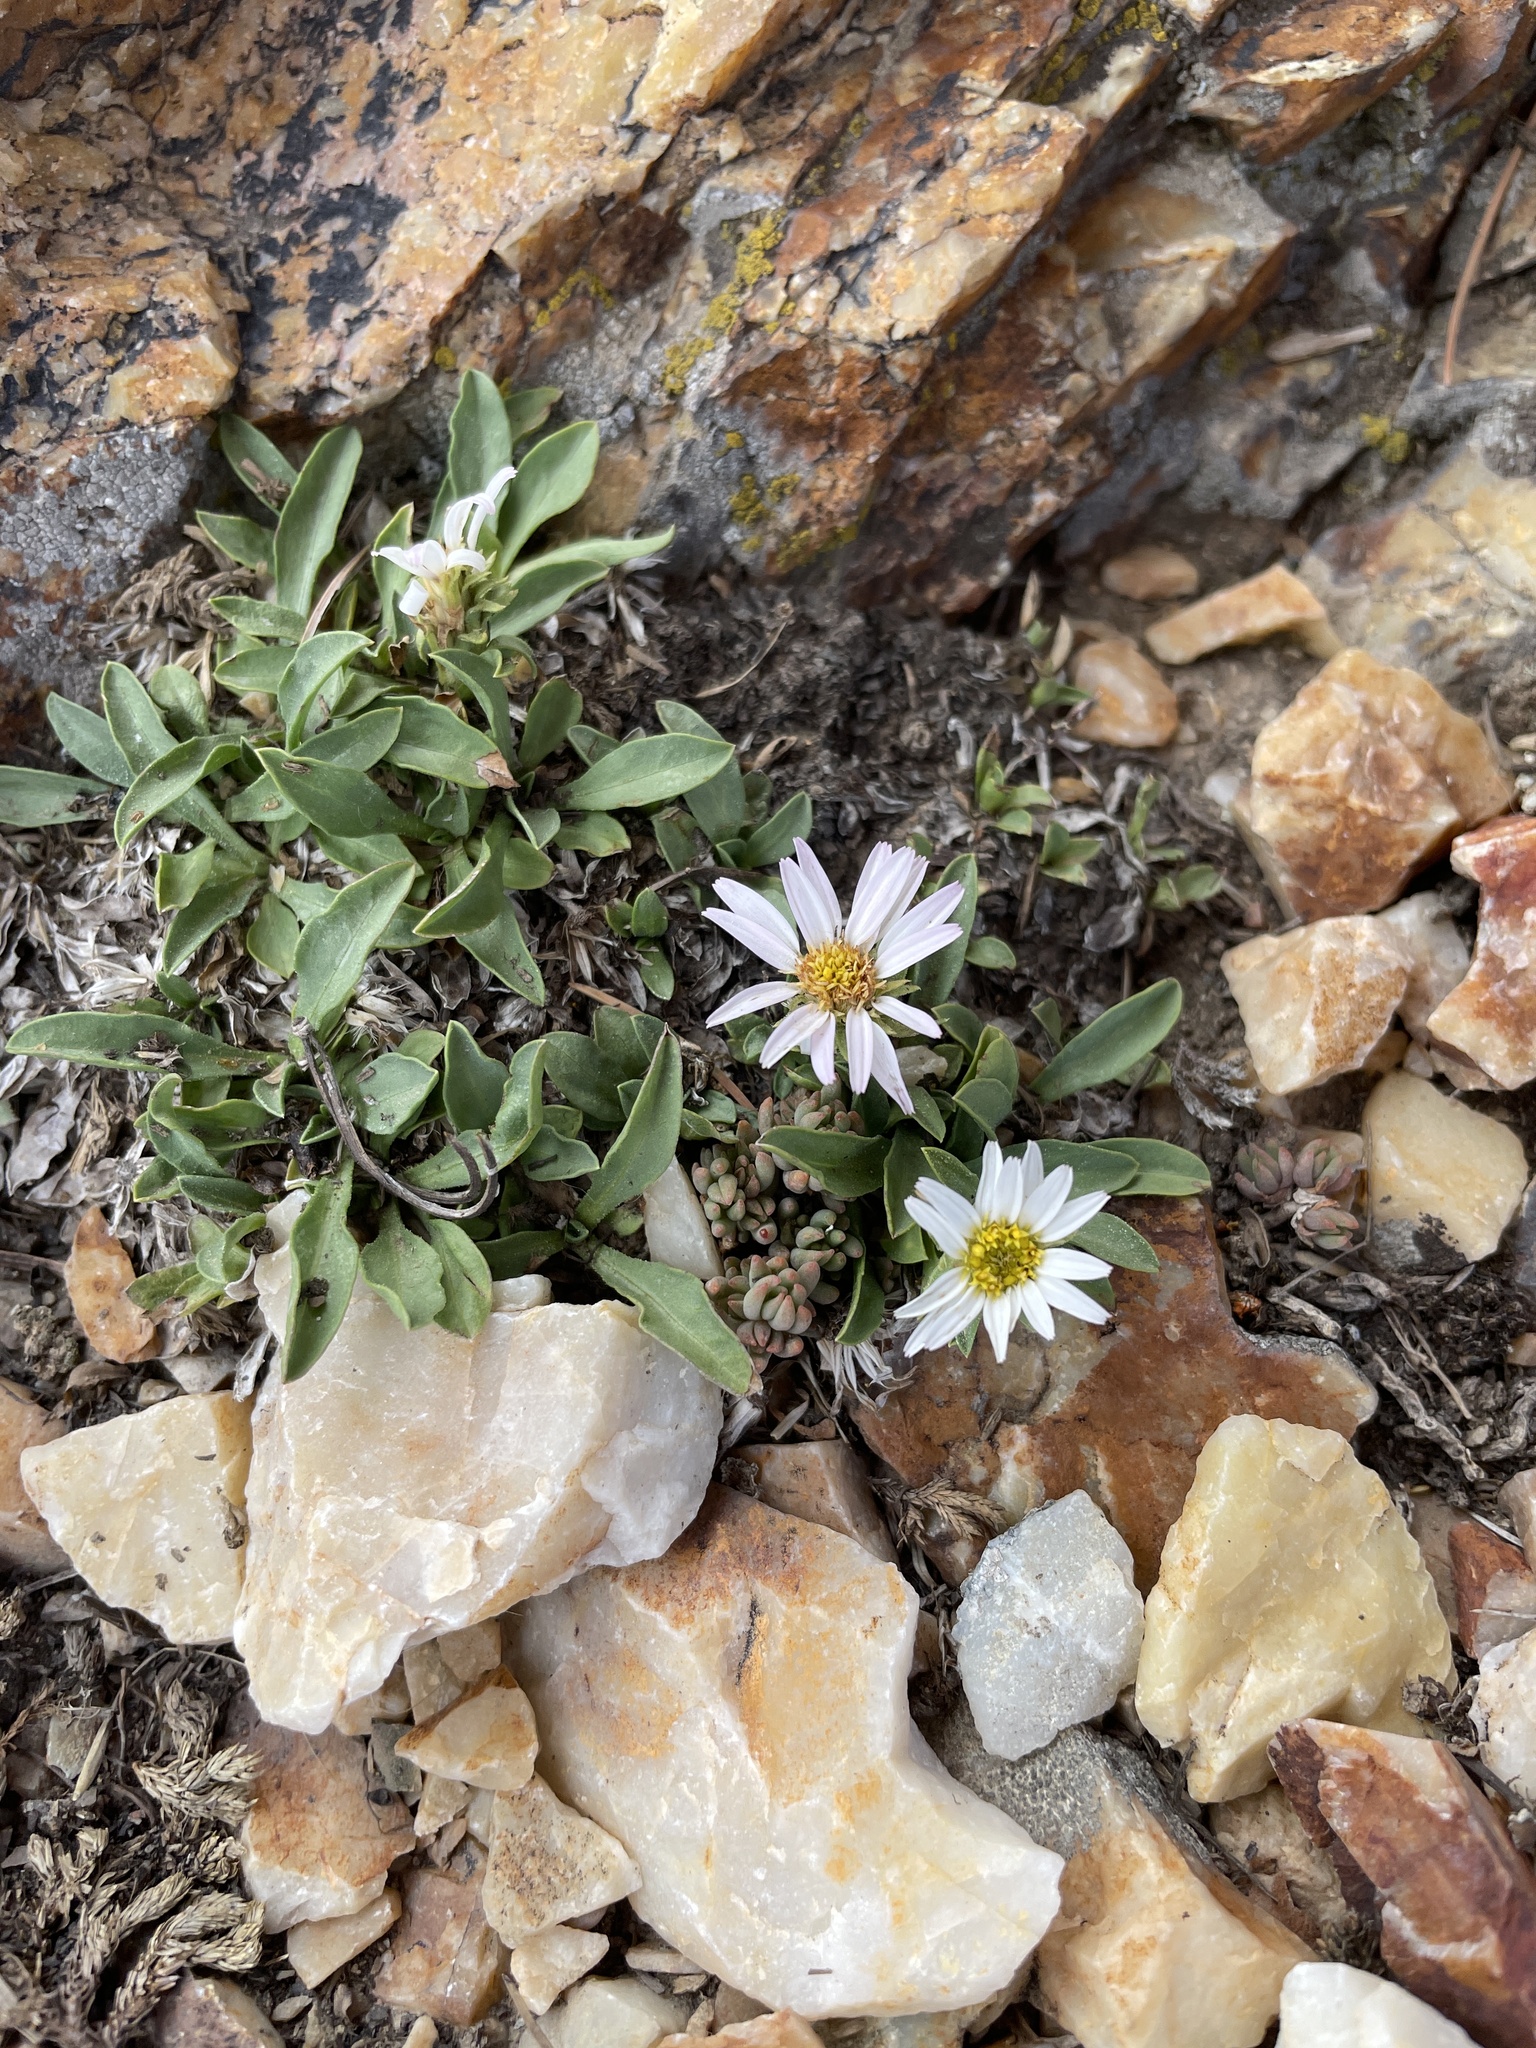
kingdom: Plantae
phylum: Tracheophyta
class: Magnoliopsida
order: Asterales
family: Asteraceae
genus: Eurybia
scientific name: Eurybia kingii
